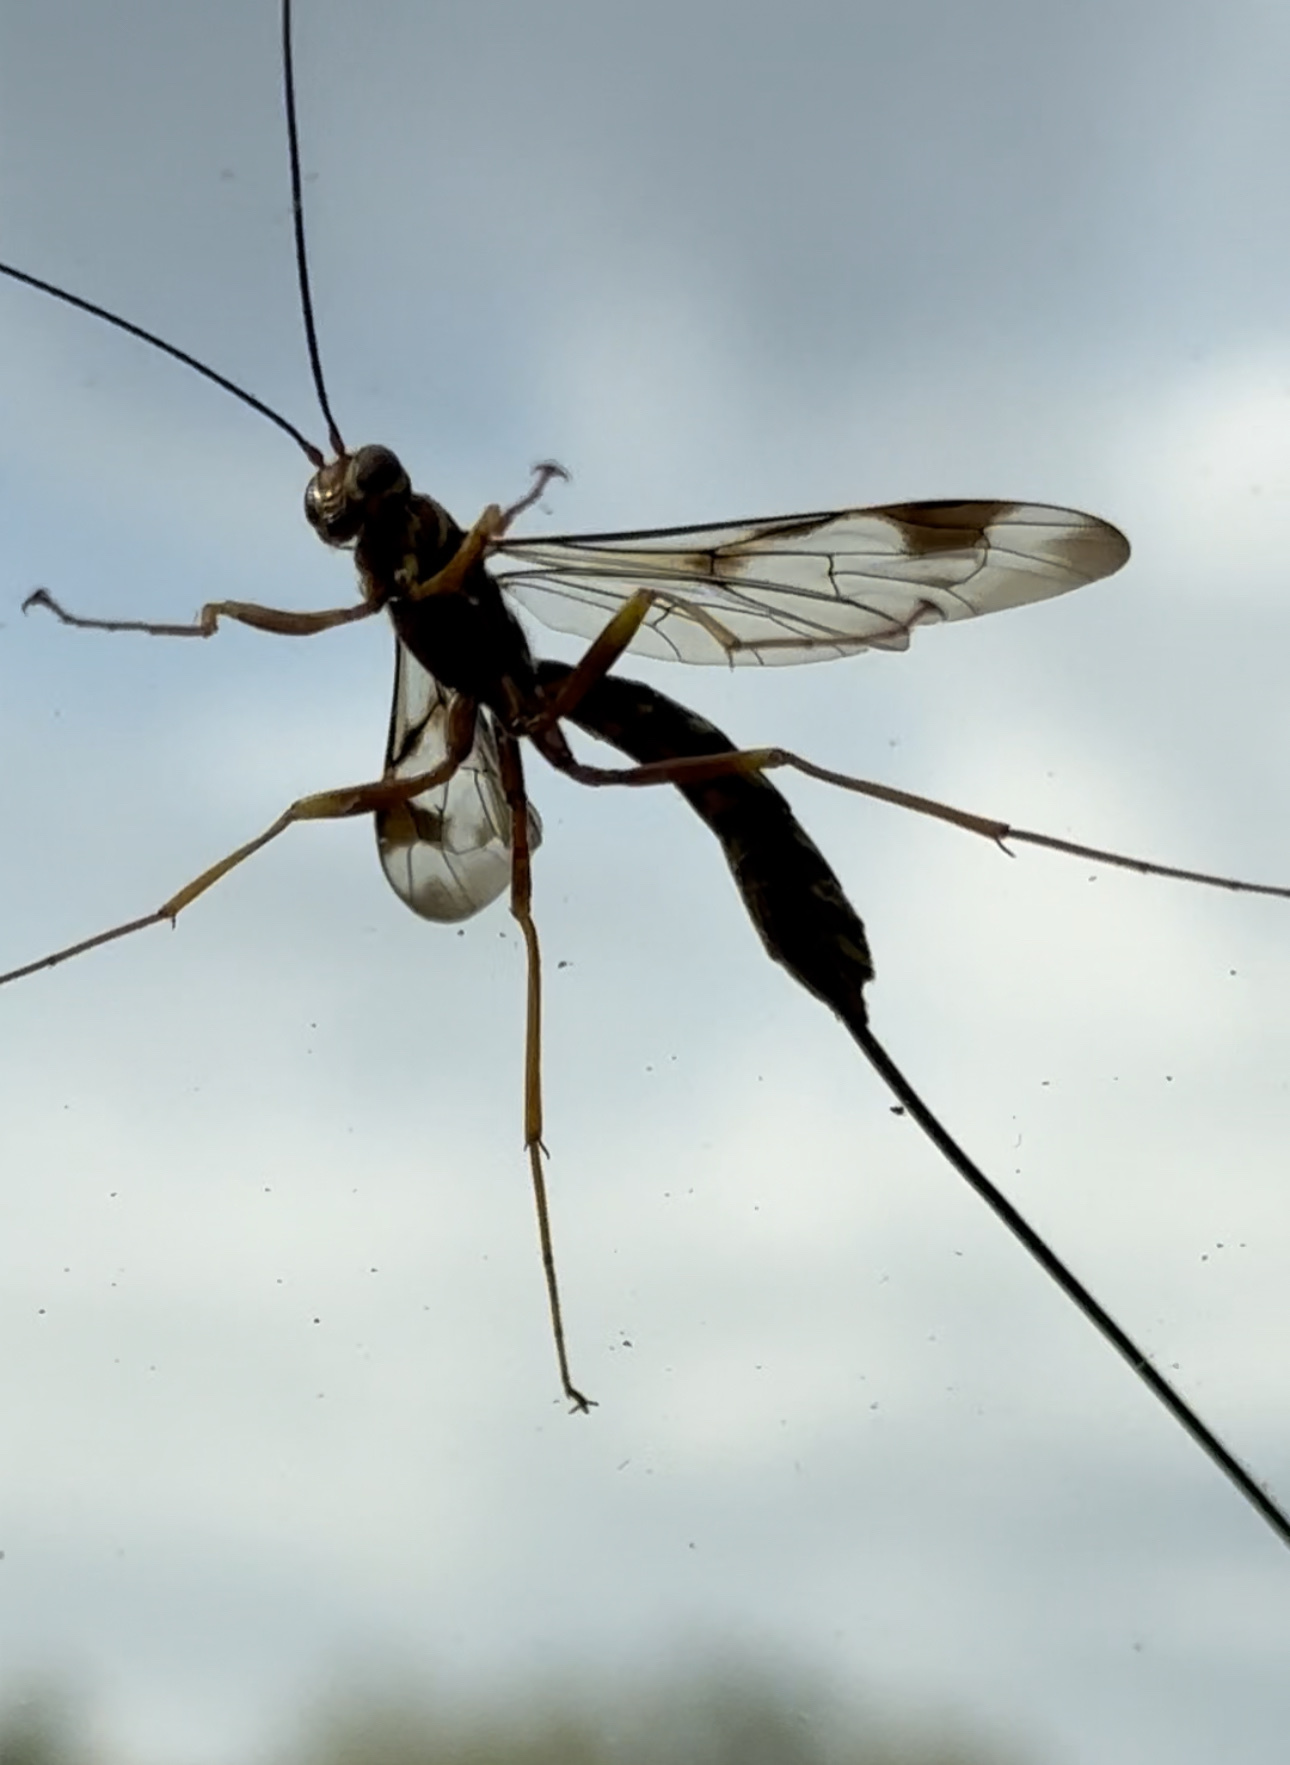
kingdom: Animalia
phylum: Arthropoda
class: Insecta
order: Hymenoptera
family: Ichneumonidae
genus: Megarhyssa
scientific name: Megarhyssa macrura
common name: Long-tailed giant ichneumonid wasp
